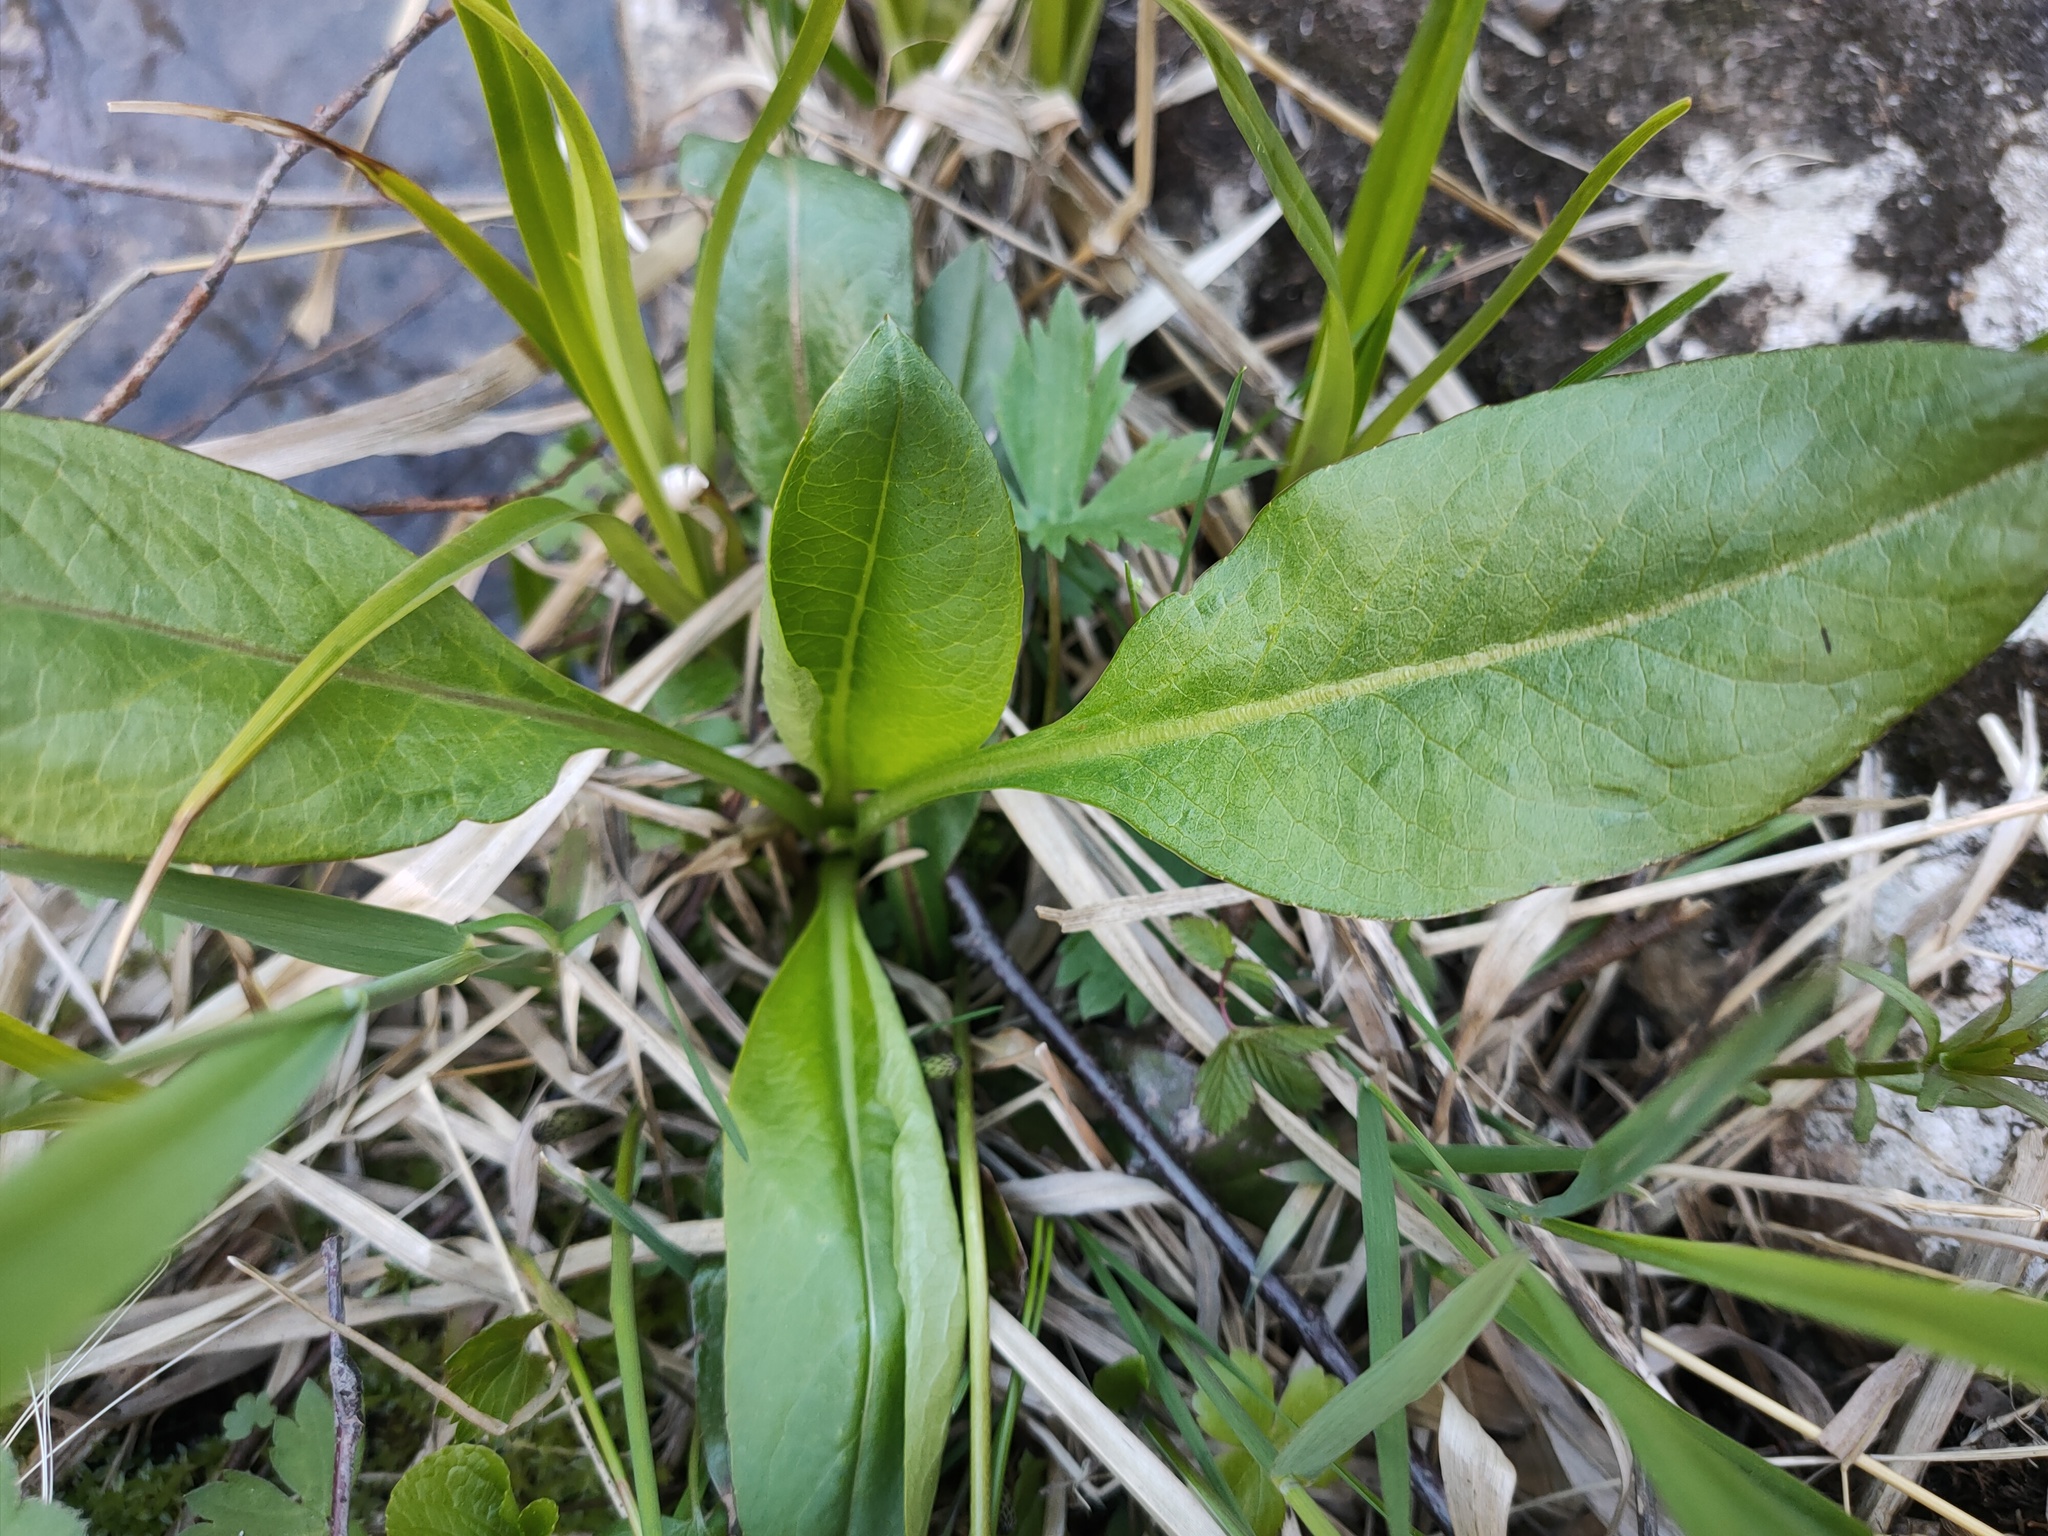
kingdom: Plantae
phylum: Tracheophyta
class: Magnoliopsida
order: Dipsacales
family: Caprifoliaceae
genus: Succisa
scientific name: Succisa pratensis
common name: Devil's-bit
